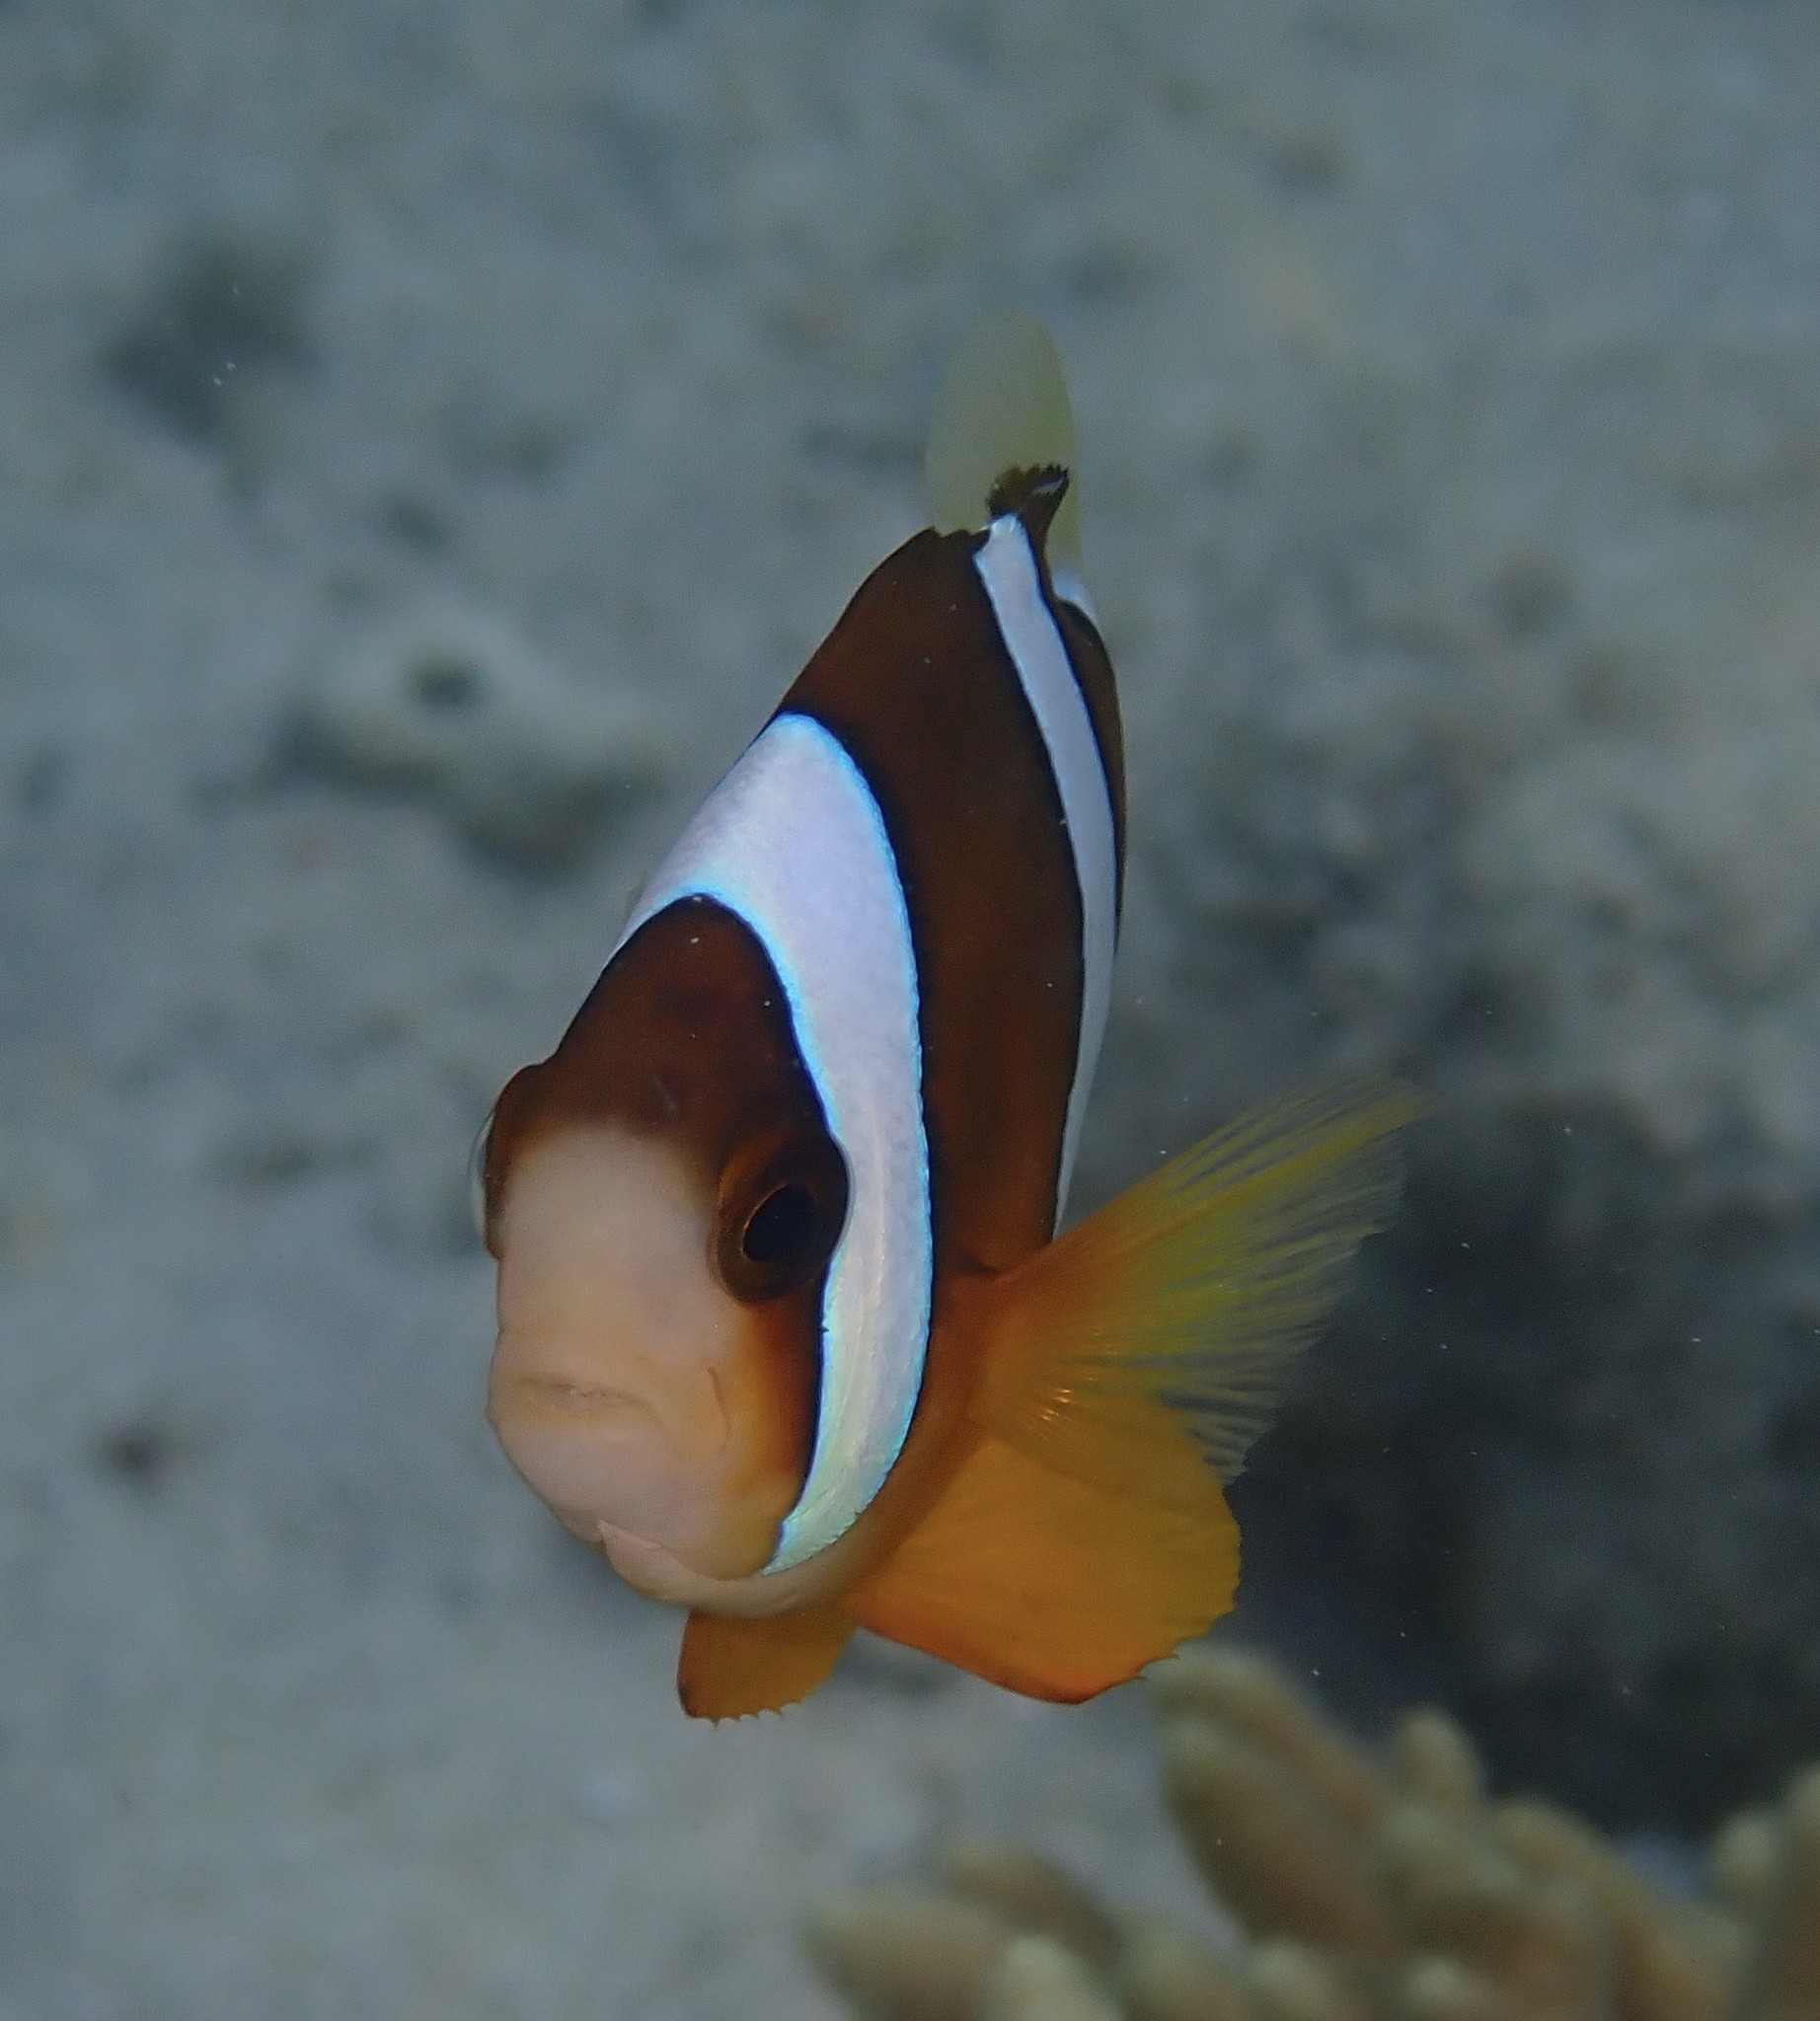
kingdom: Animalia
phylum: Chordata
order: Perciformes
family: Pomacentridae
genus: Amphiprion
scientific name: Amphiprion clarkii
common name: Clark's anemonefish
